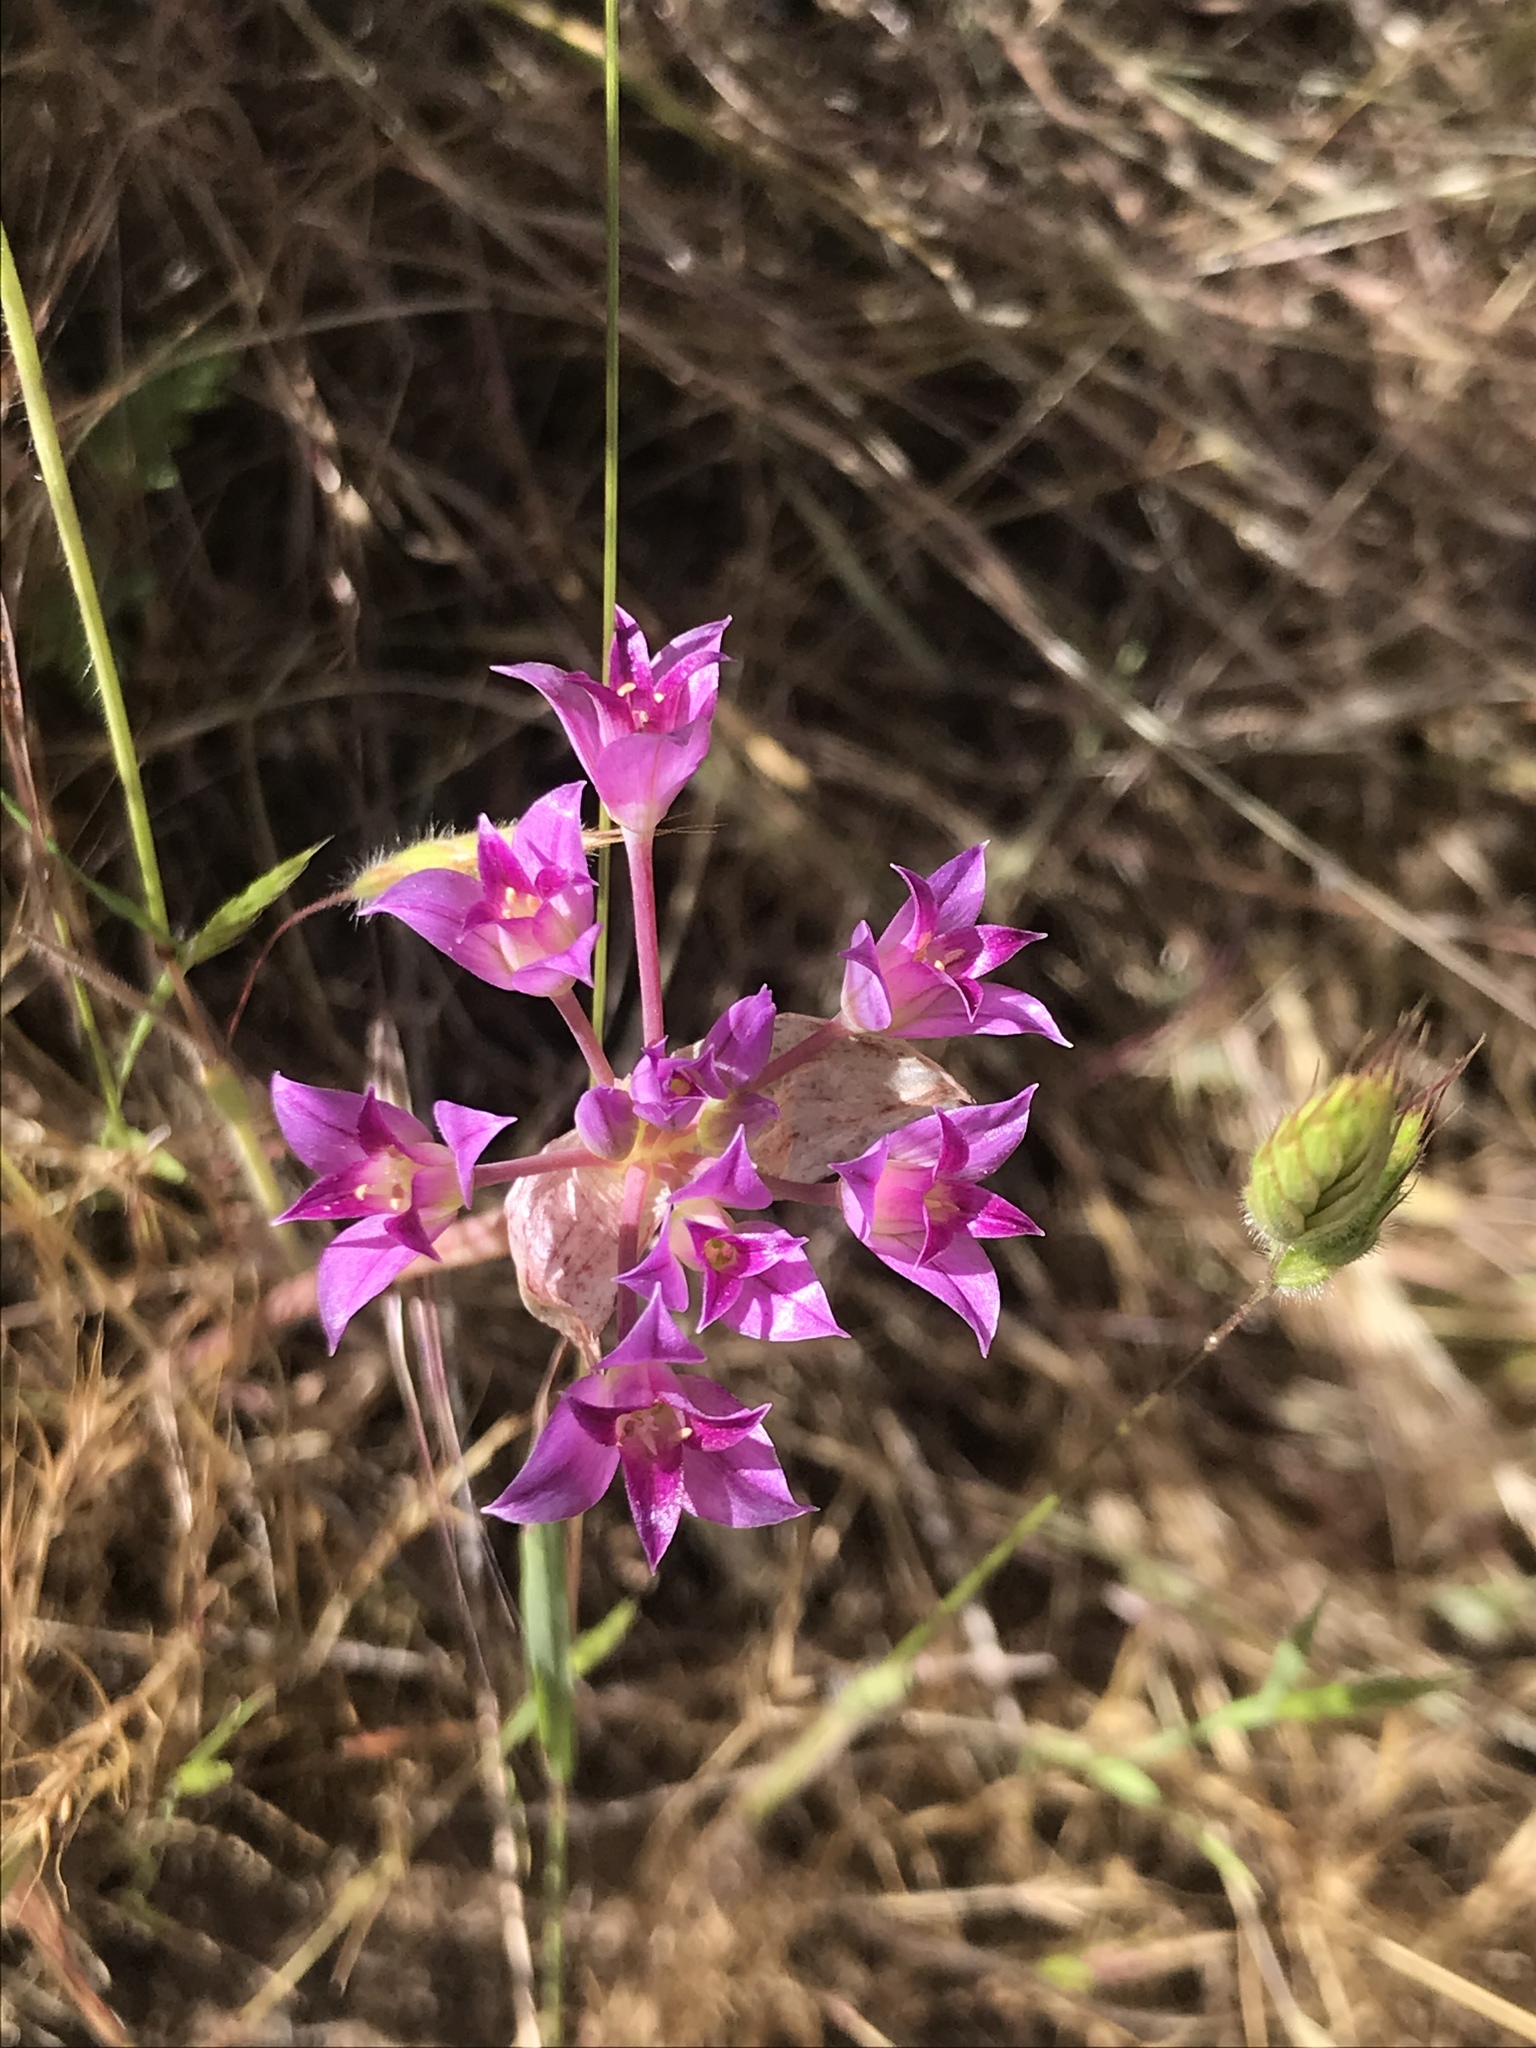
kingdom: Plantae
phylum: Tracheophyta
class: Liliopsida
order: Asparagales
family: Amaryllidaceae
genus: Allium
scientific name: Allium peninsulare
